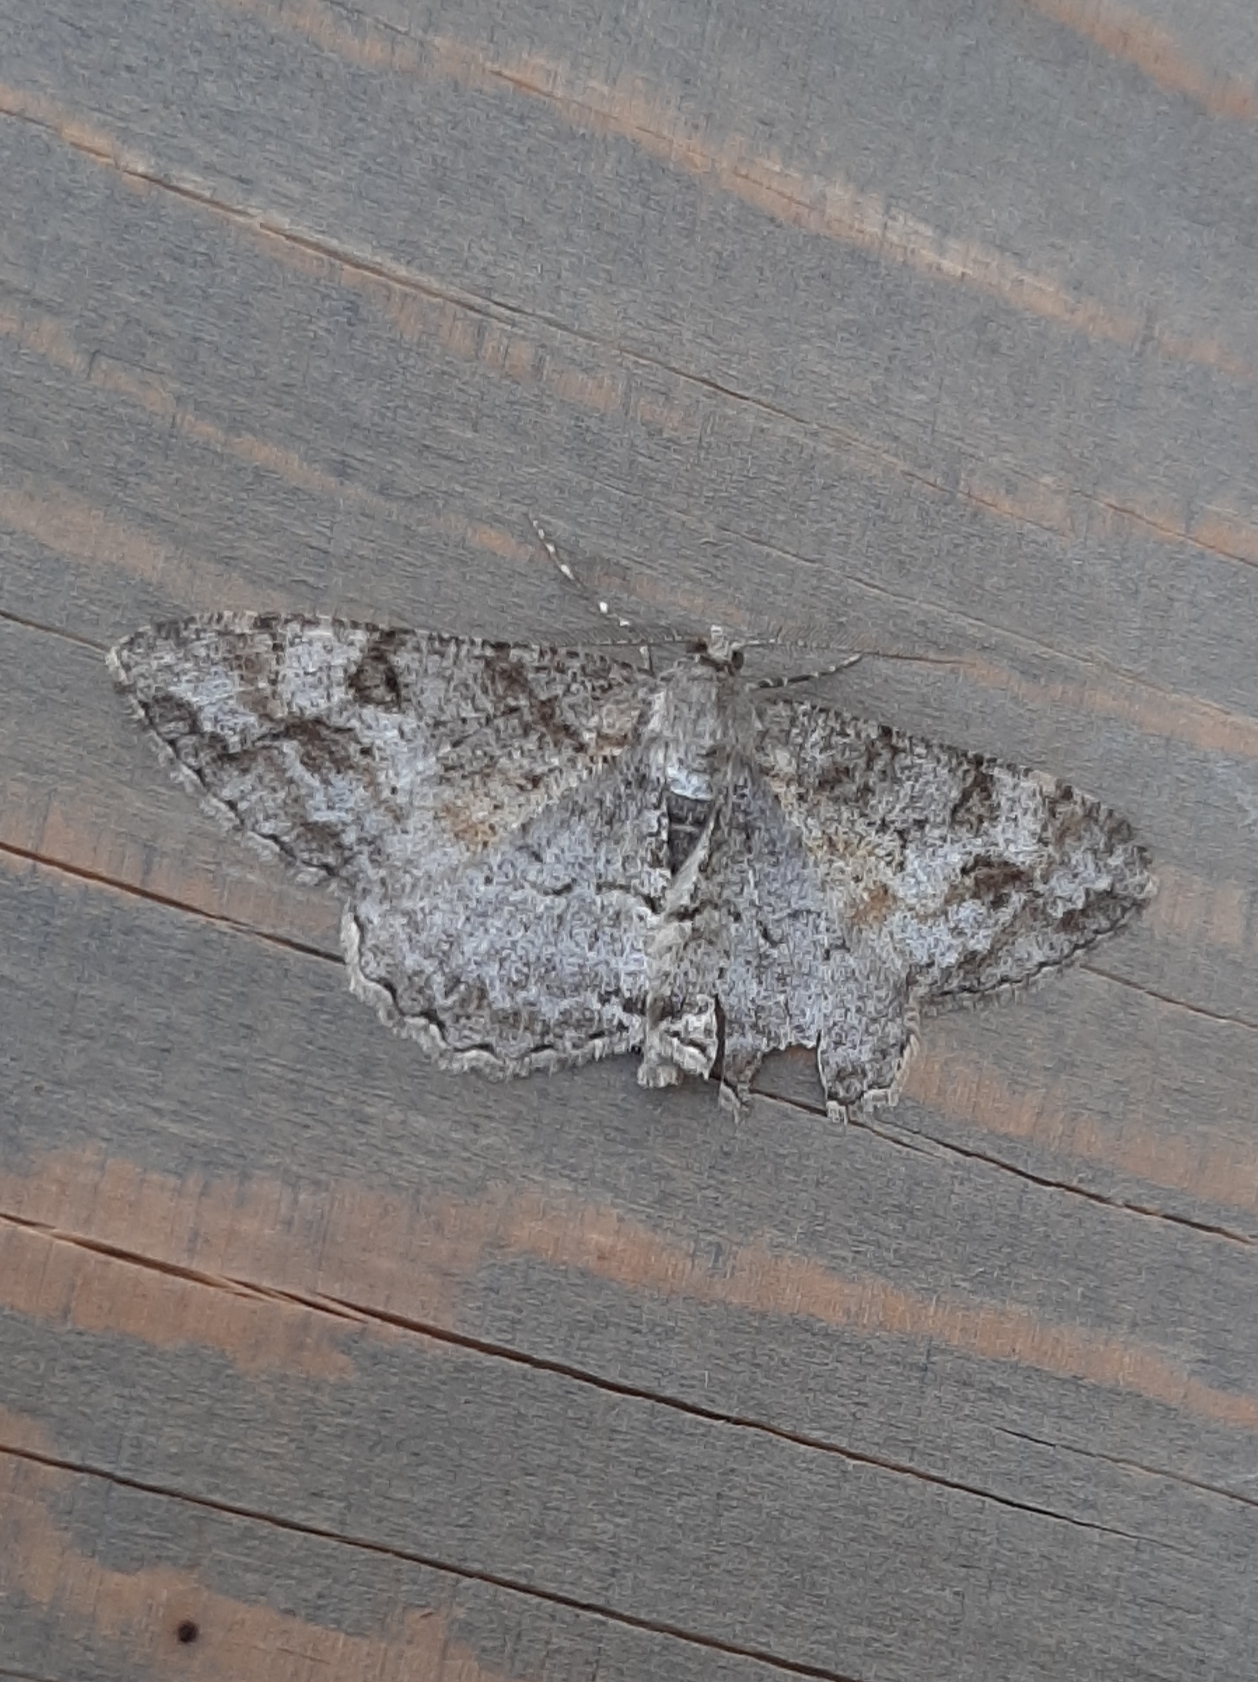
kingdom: Animalia
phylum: Arthropoda
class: Insecta
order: Lepidoptera
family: Geometridae
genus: Alcis
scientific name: Alcis repandata
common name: Mottled beauty
